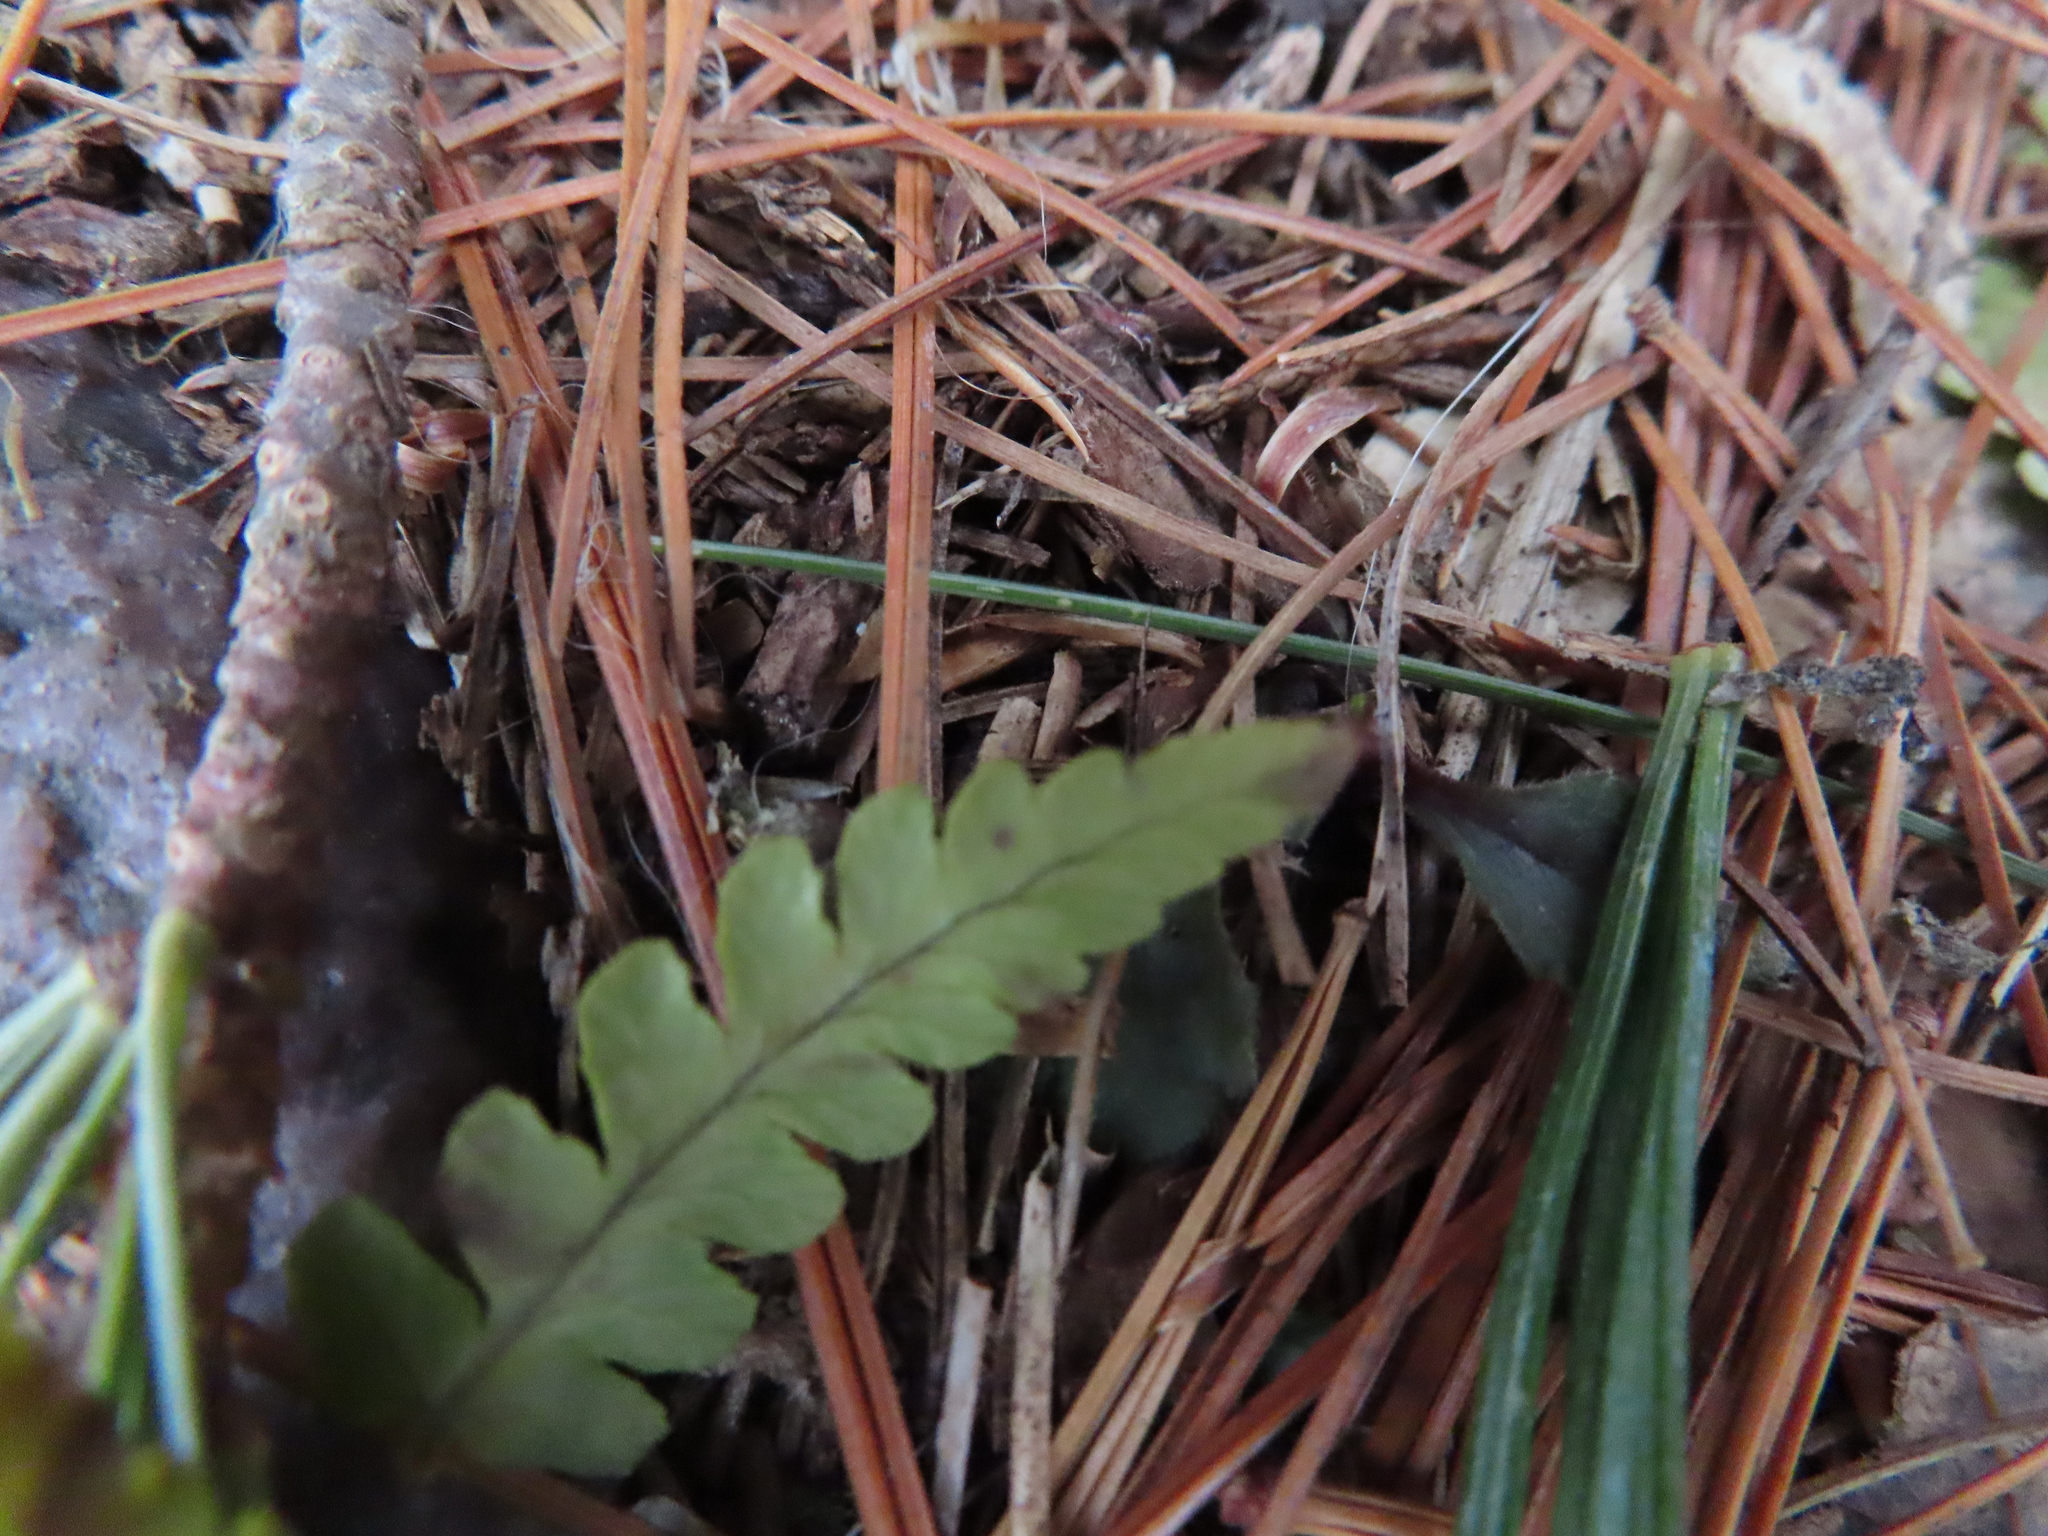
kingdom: Plantae
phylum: Tracheophyta
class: Polypodiopsida
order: Polypodiales
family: Dryopteridaceae
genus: Dryopteris
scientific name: Dryopteris marginalis
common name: Marginal wood fern
